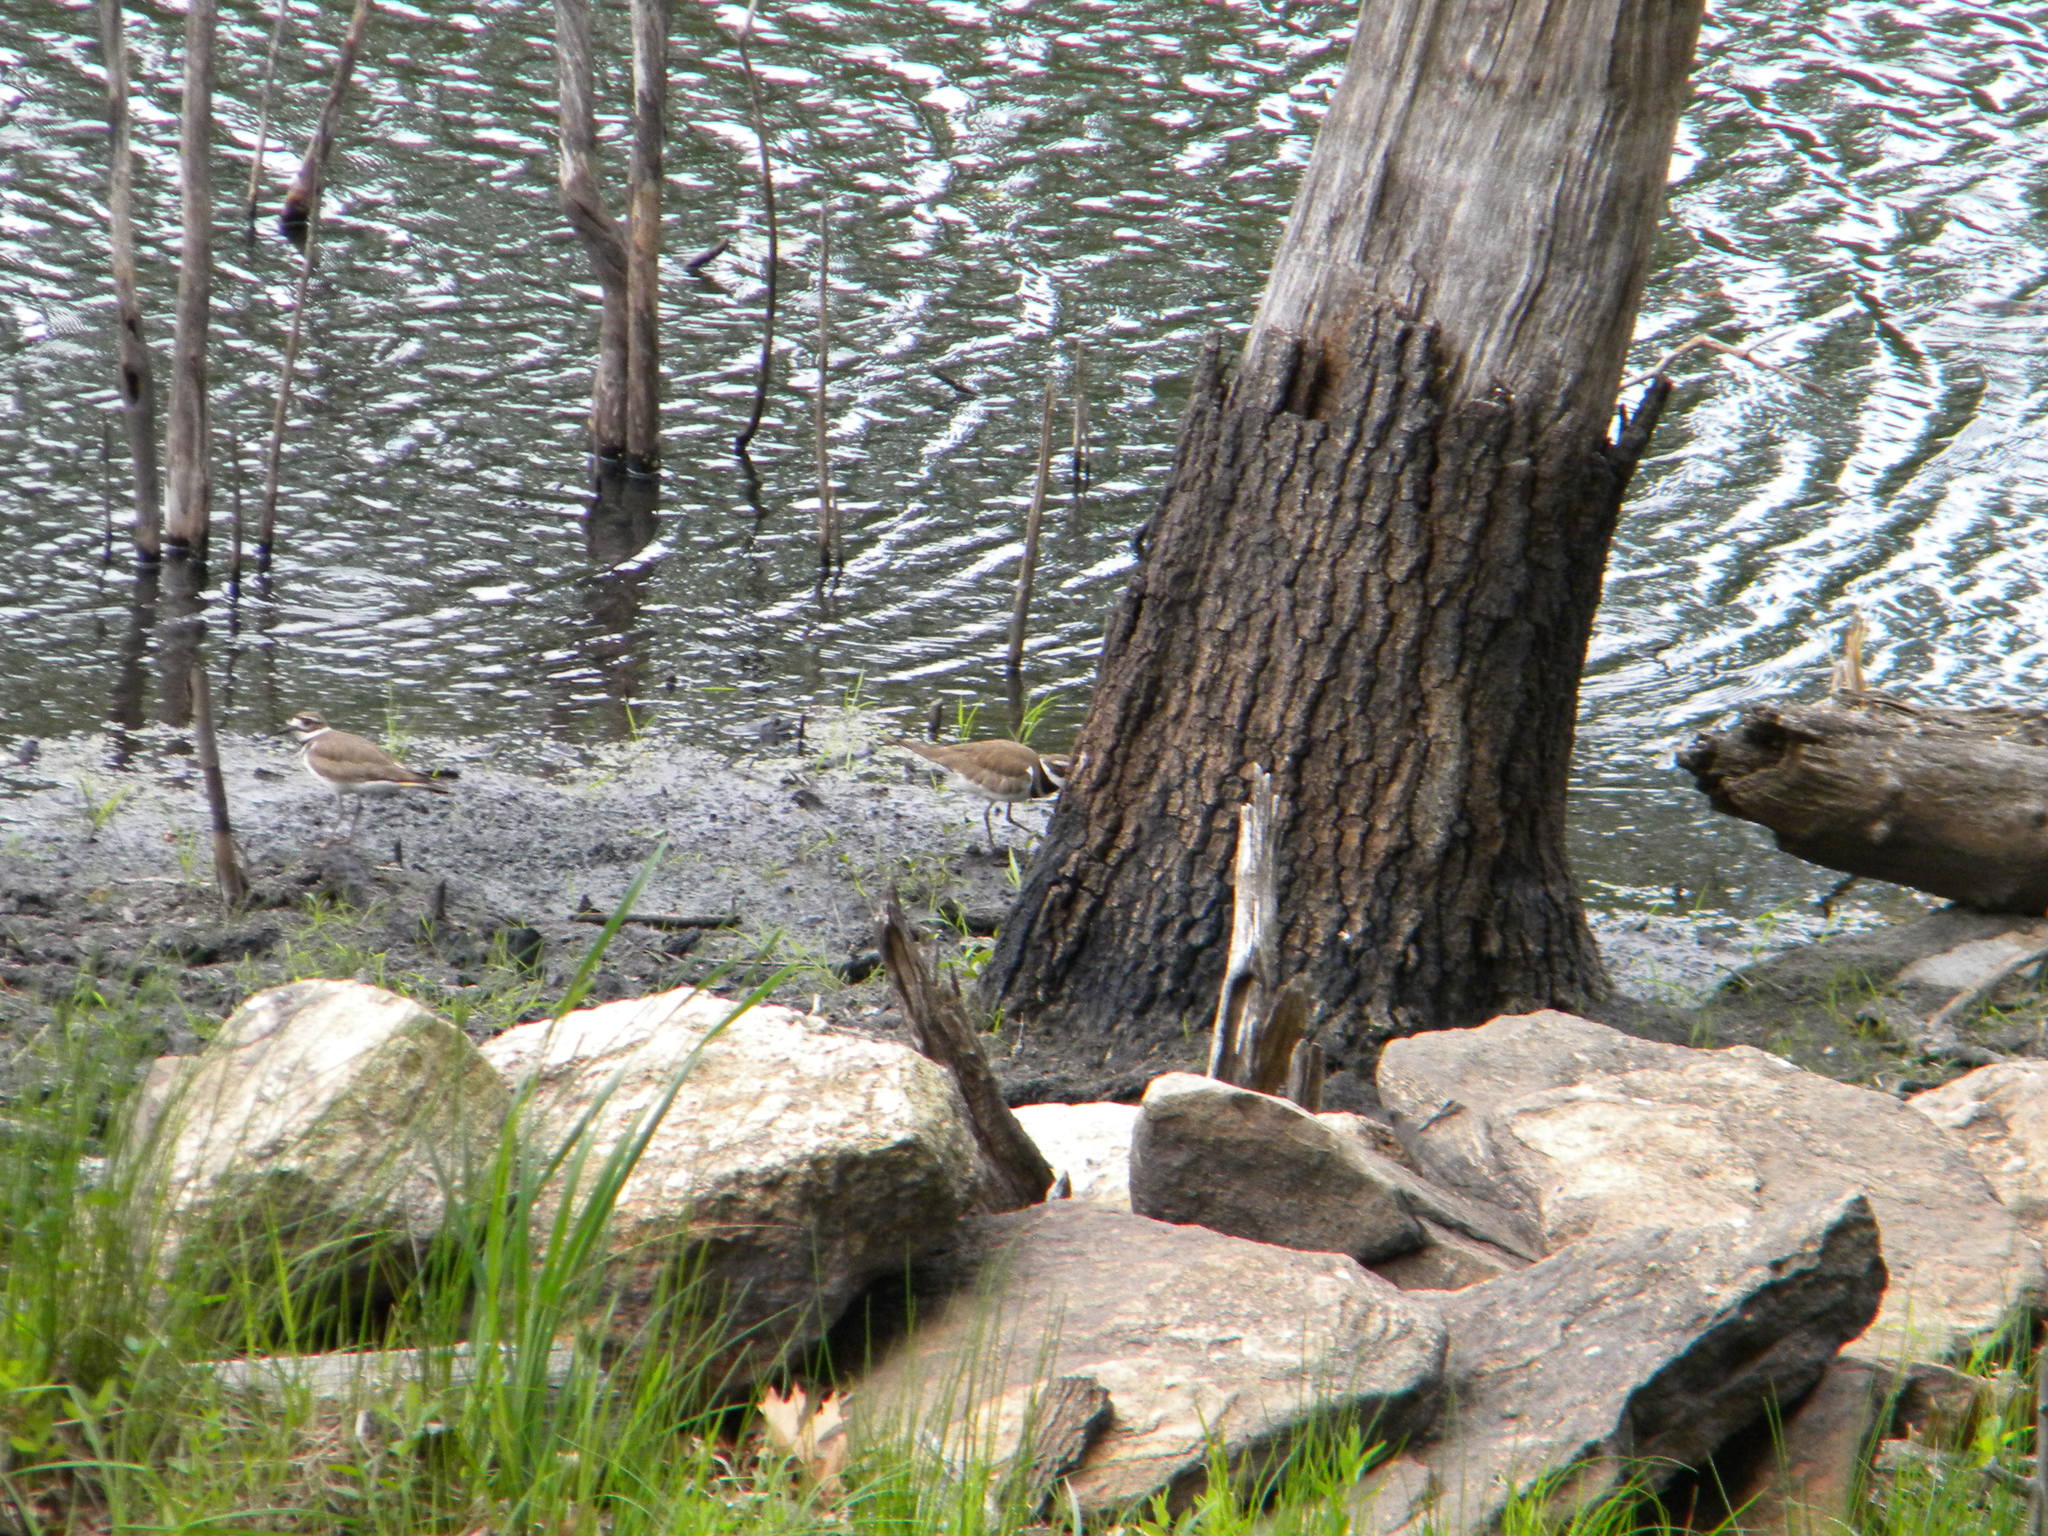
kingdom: Animalia
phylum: Chordata
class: Aves
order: Charadriiformes
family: Charadriidae
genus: Charadrius
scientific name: Charadrius vociferus
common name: Killdeer
